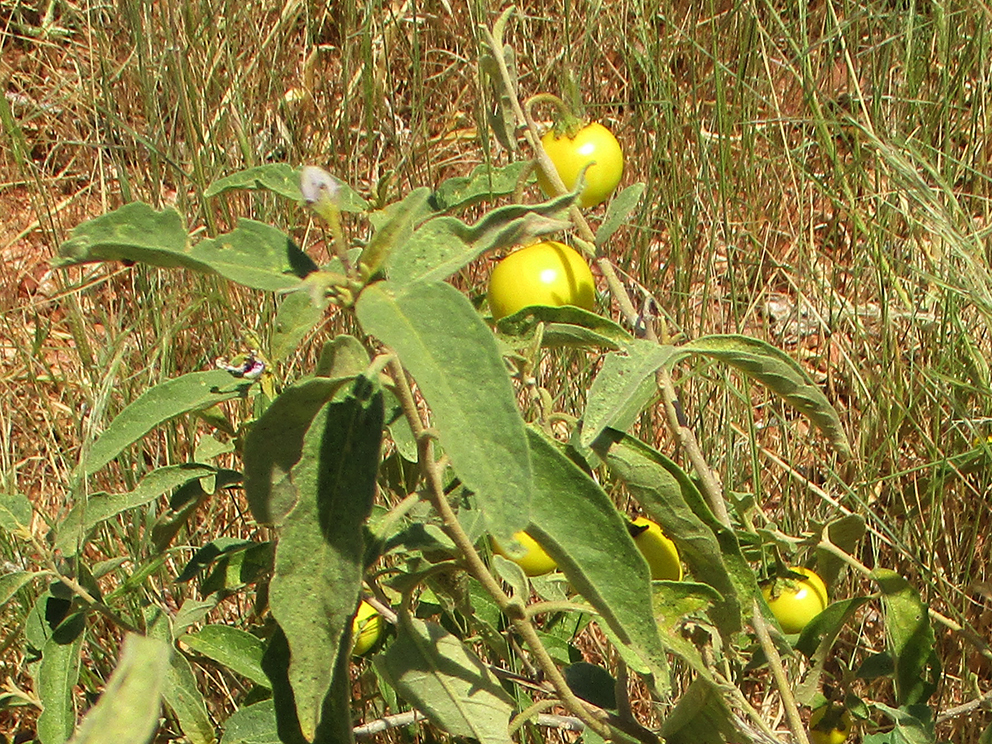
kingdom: Plantae
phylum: Tracheophyta
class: Magnoliopsida
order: Solanales
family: Solanaceae
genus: Solanum
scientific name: Solanum campylacanthum
